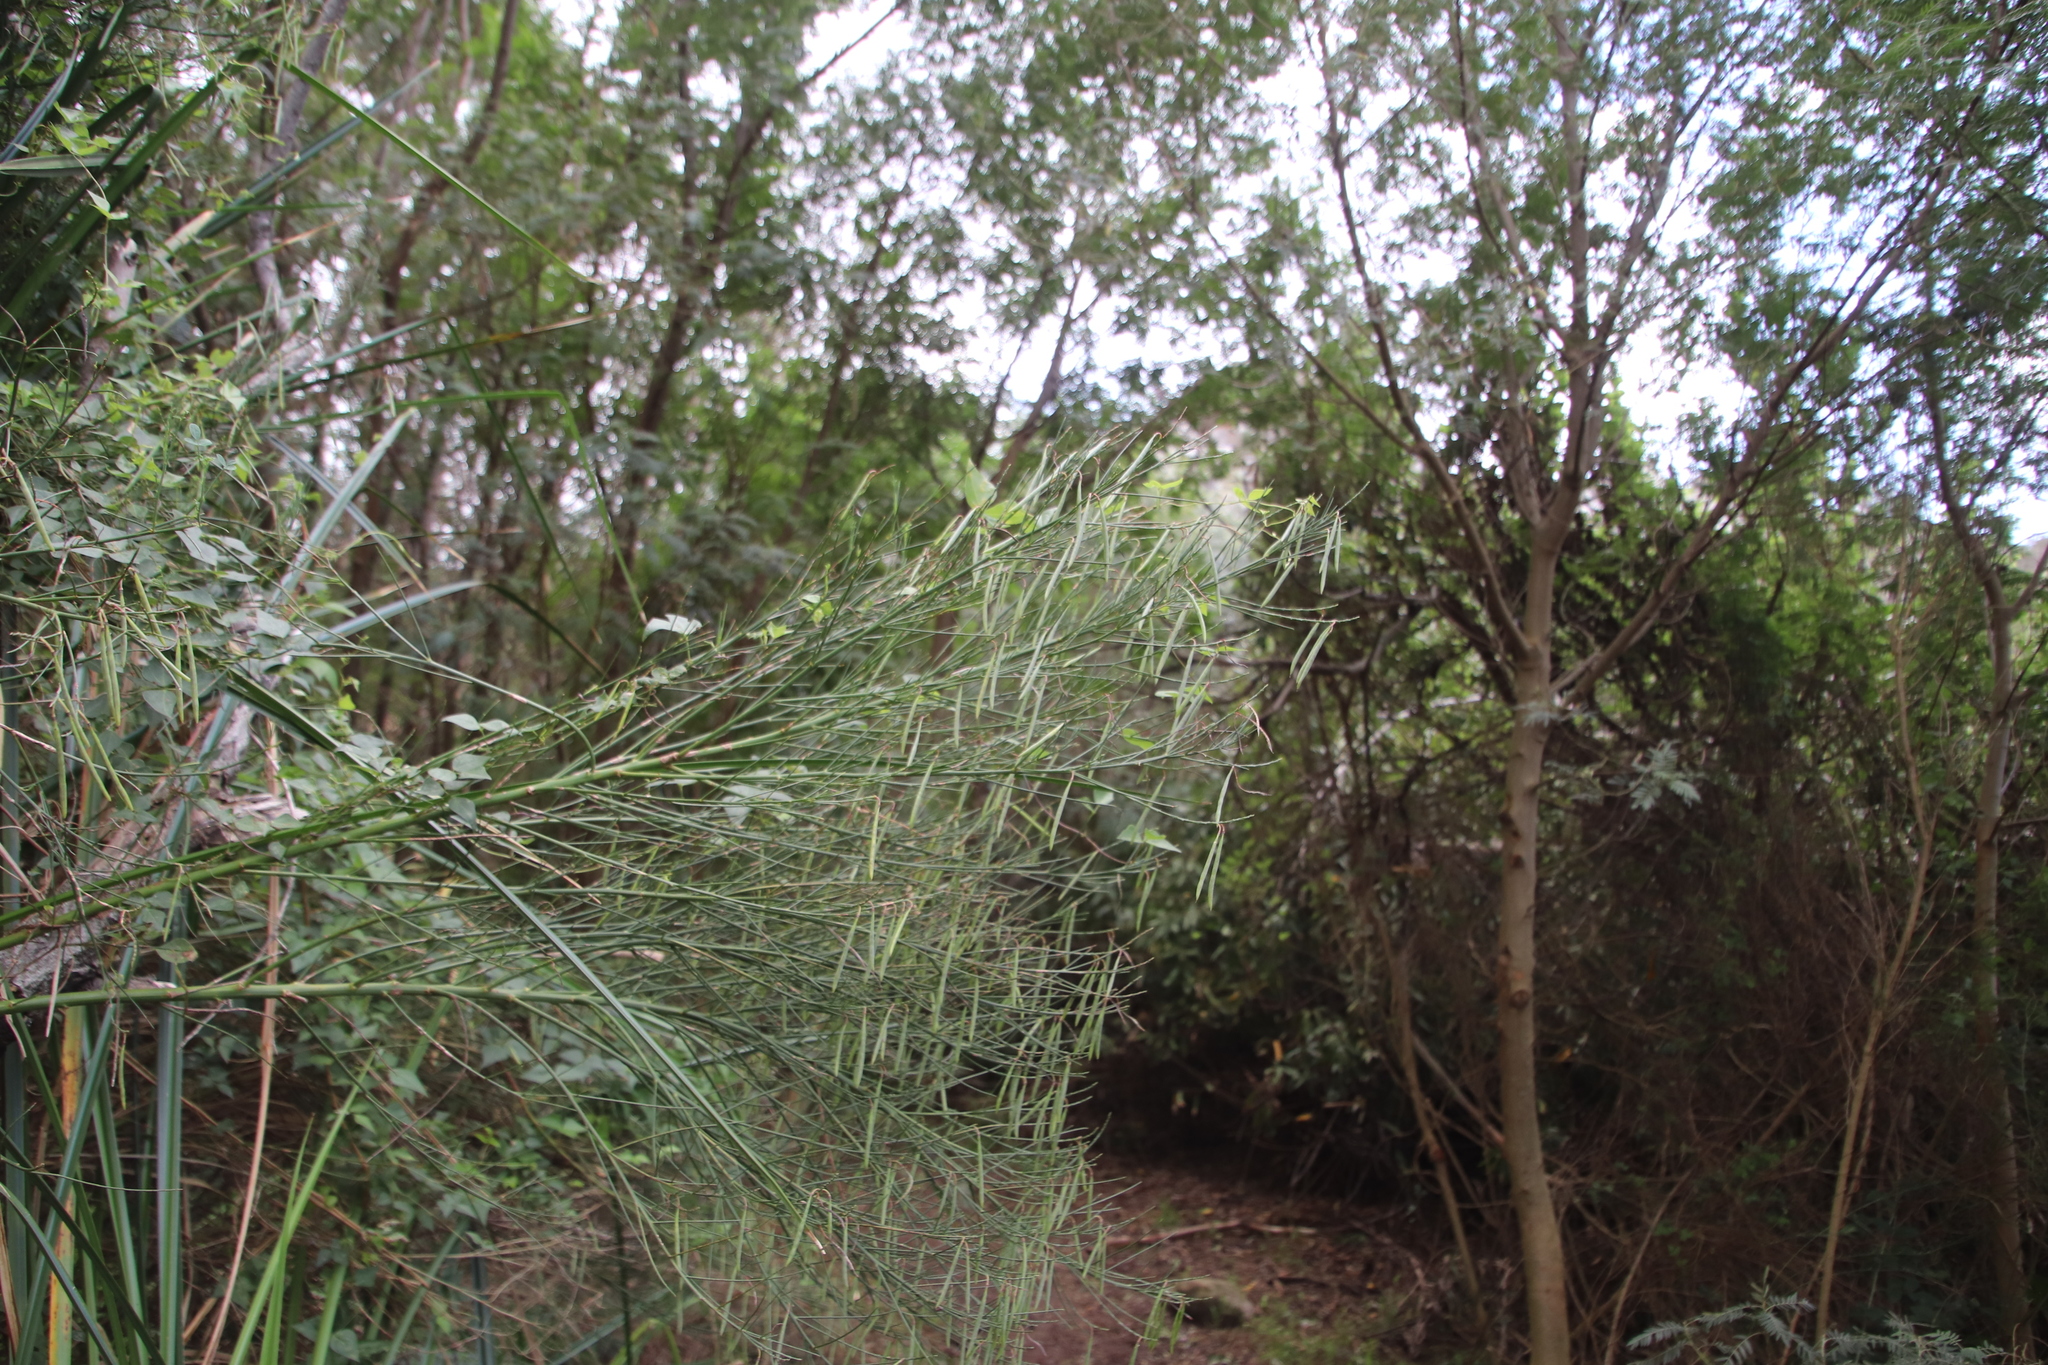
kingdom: Plantae
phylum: Tracheophyta
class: Magnoliopsida
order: Fabales
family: Fabaceae
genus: Indigofera
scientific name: Indigofera filifolia
